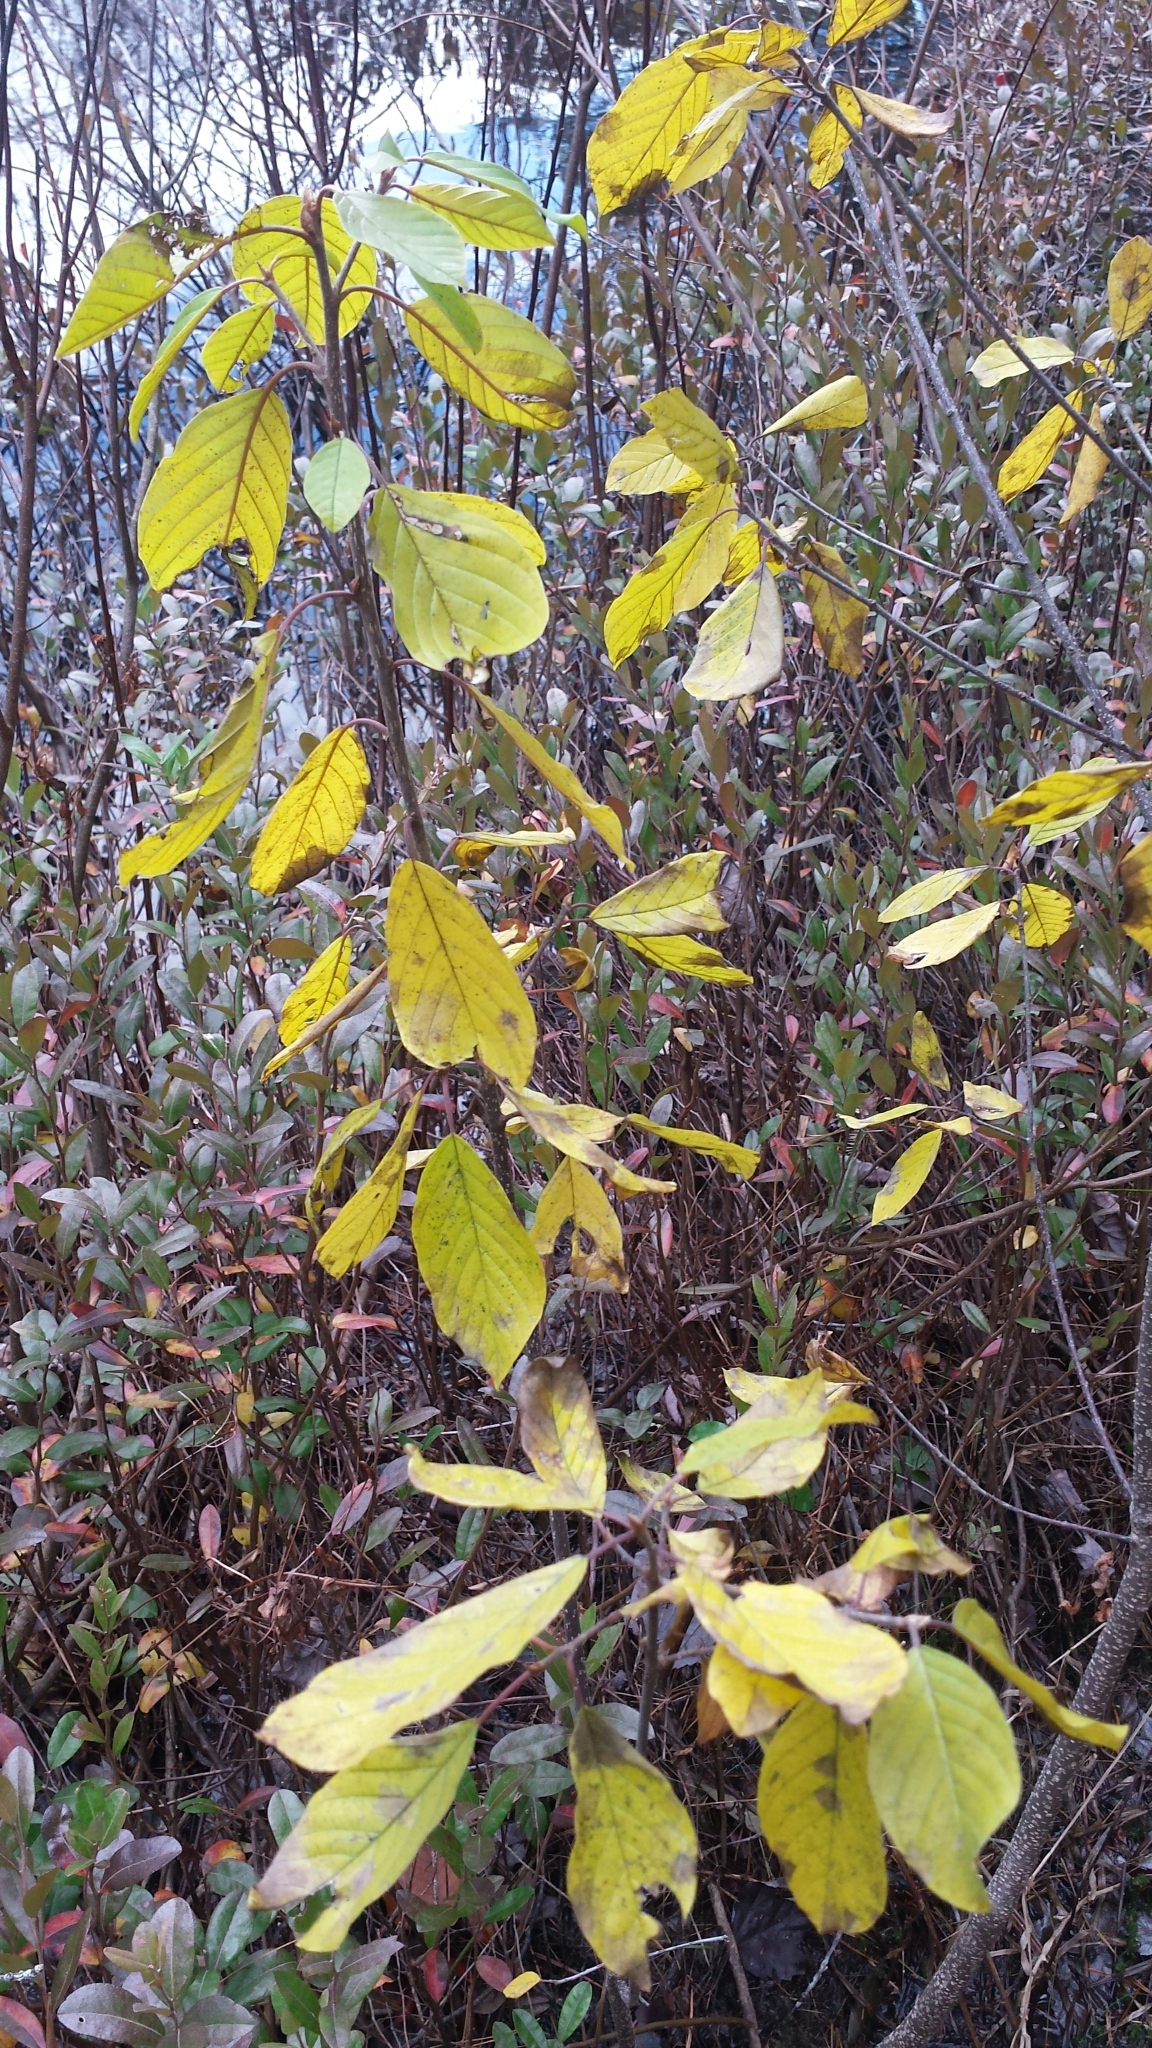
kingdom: Plantae
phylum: Tracheophyta
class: Magnoliopsida
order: Rosales
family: Rhamnaceae
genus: Frangula
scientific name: Frangula alnus
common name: Alder buckthorn
